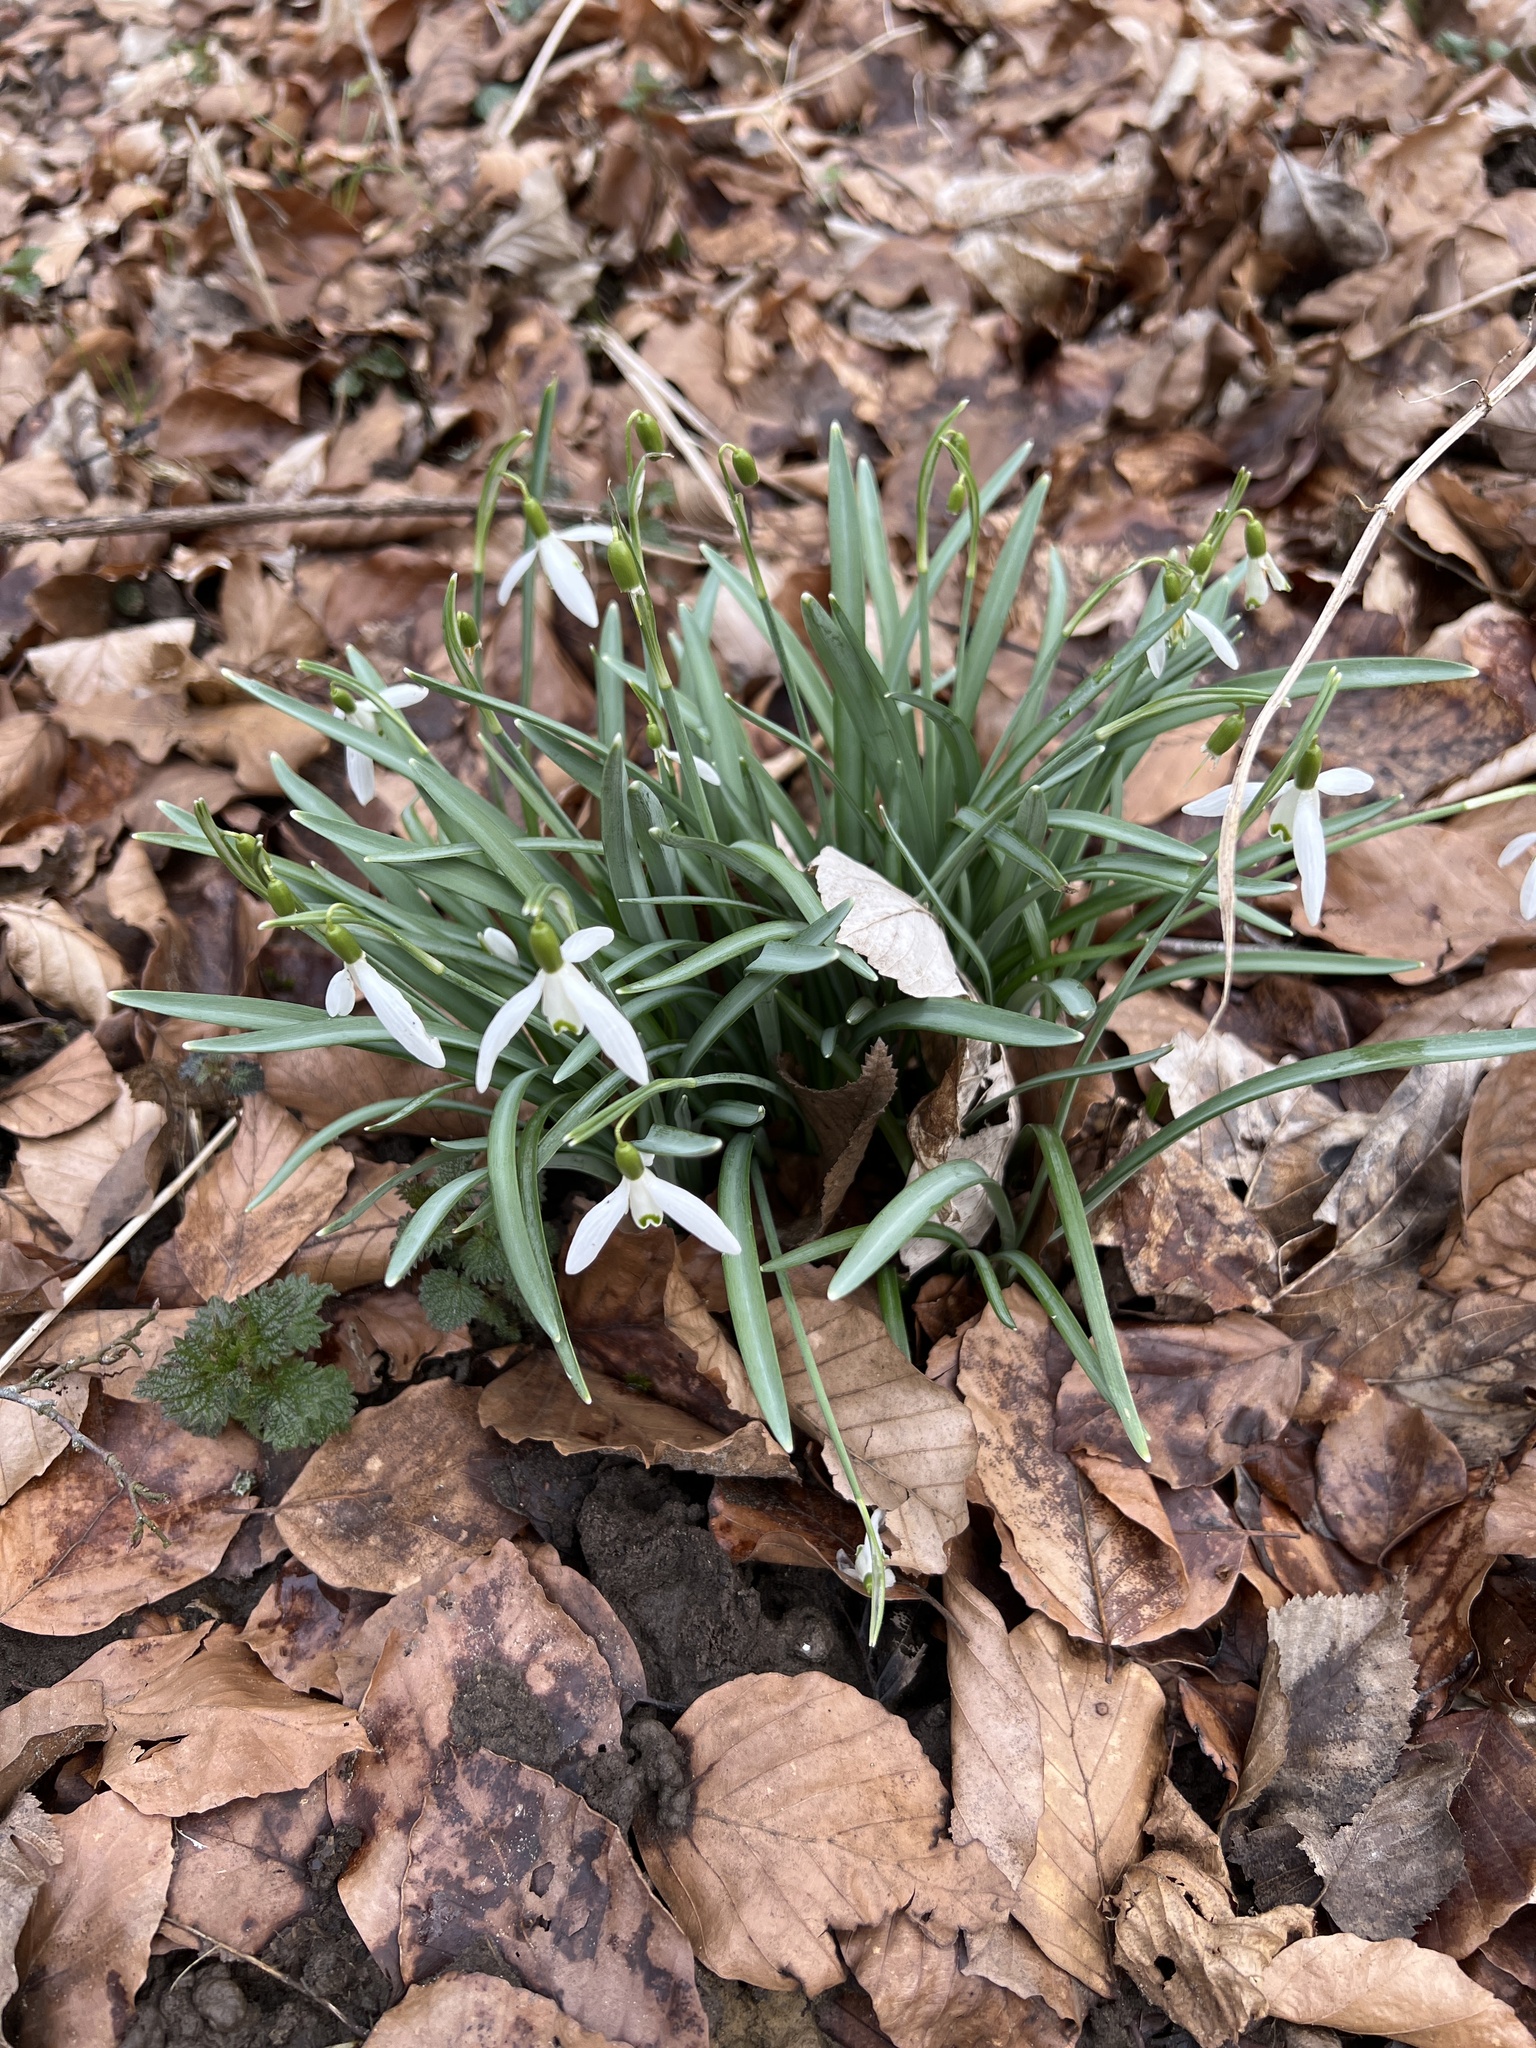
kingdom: Plantae
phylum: Tracheophyta
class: Liliopsida
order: Asparagales
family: Amaryllidaceae
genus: Galanthus
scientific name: Galanthus nivalis
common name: Snowdrop
